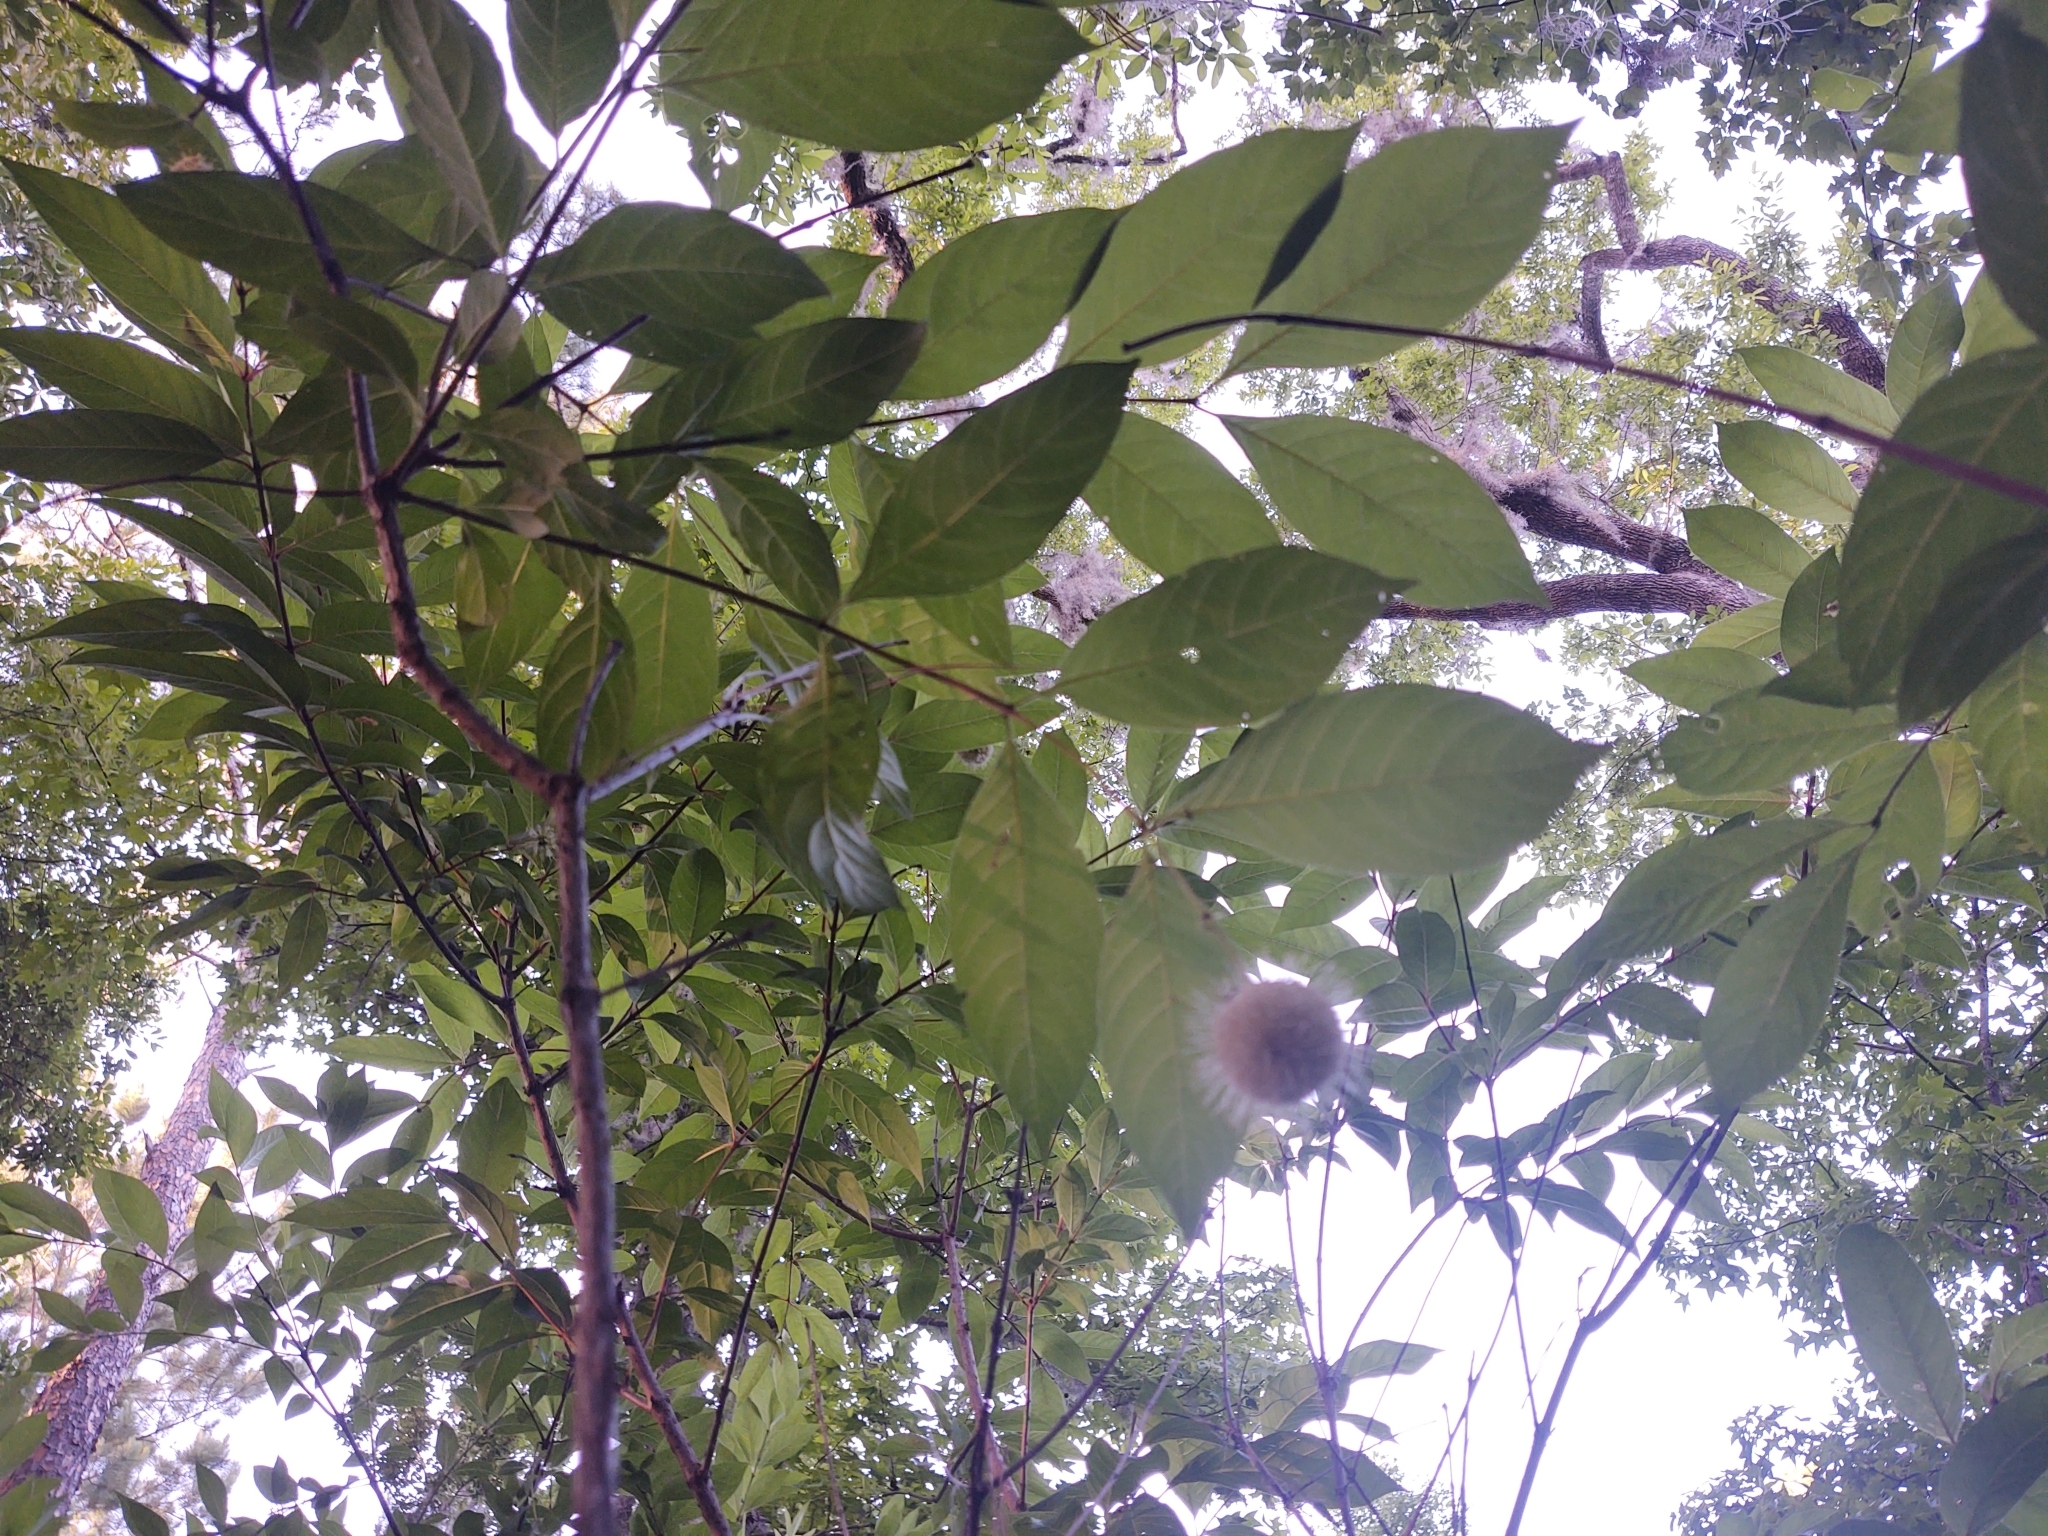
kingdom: Plantae
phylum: Tracheophyta
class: Magnoliopsida
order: Gentianales
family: Rubiaceae
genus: Cephalanthus
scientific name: Cephalanthus occidentalis
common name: Button-willow
